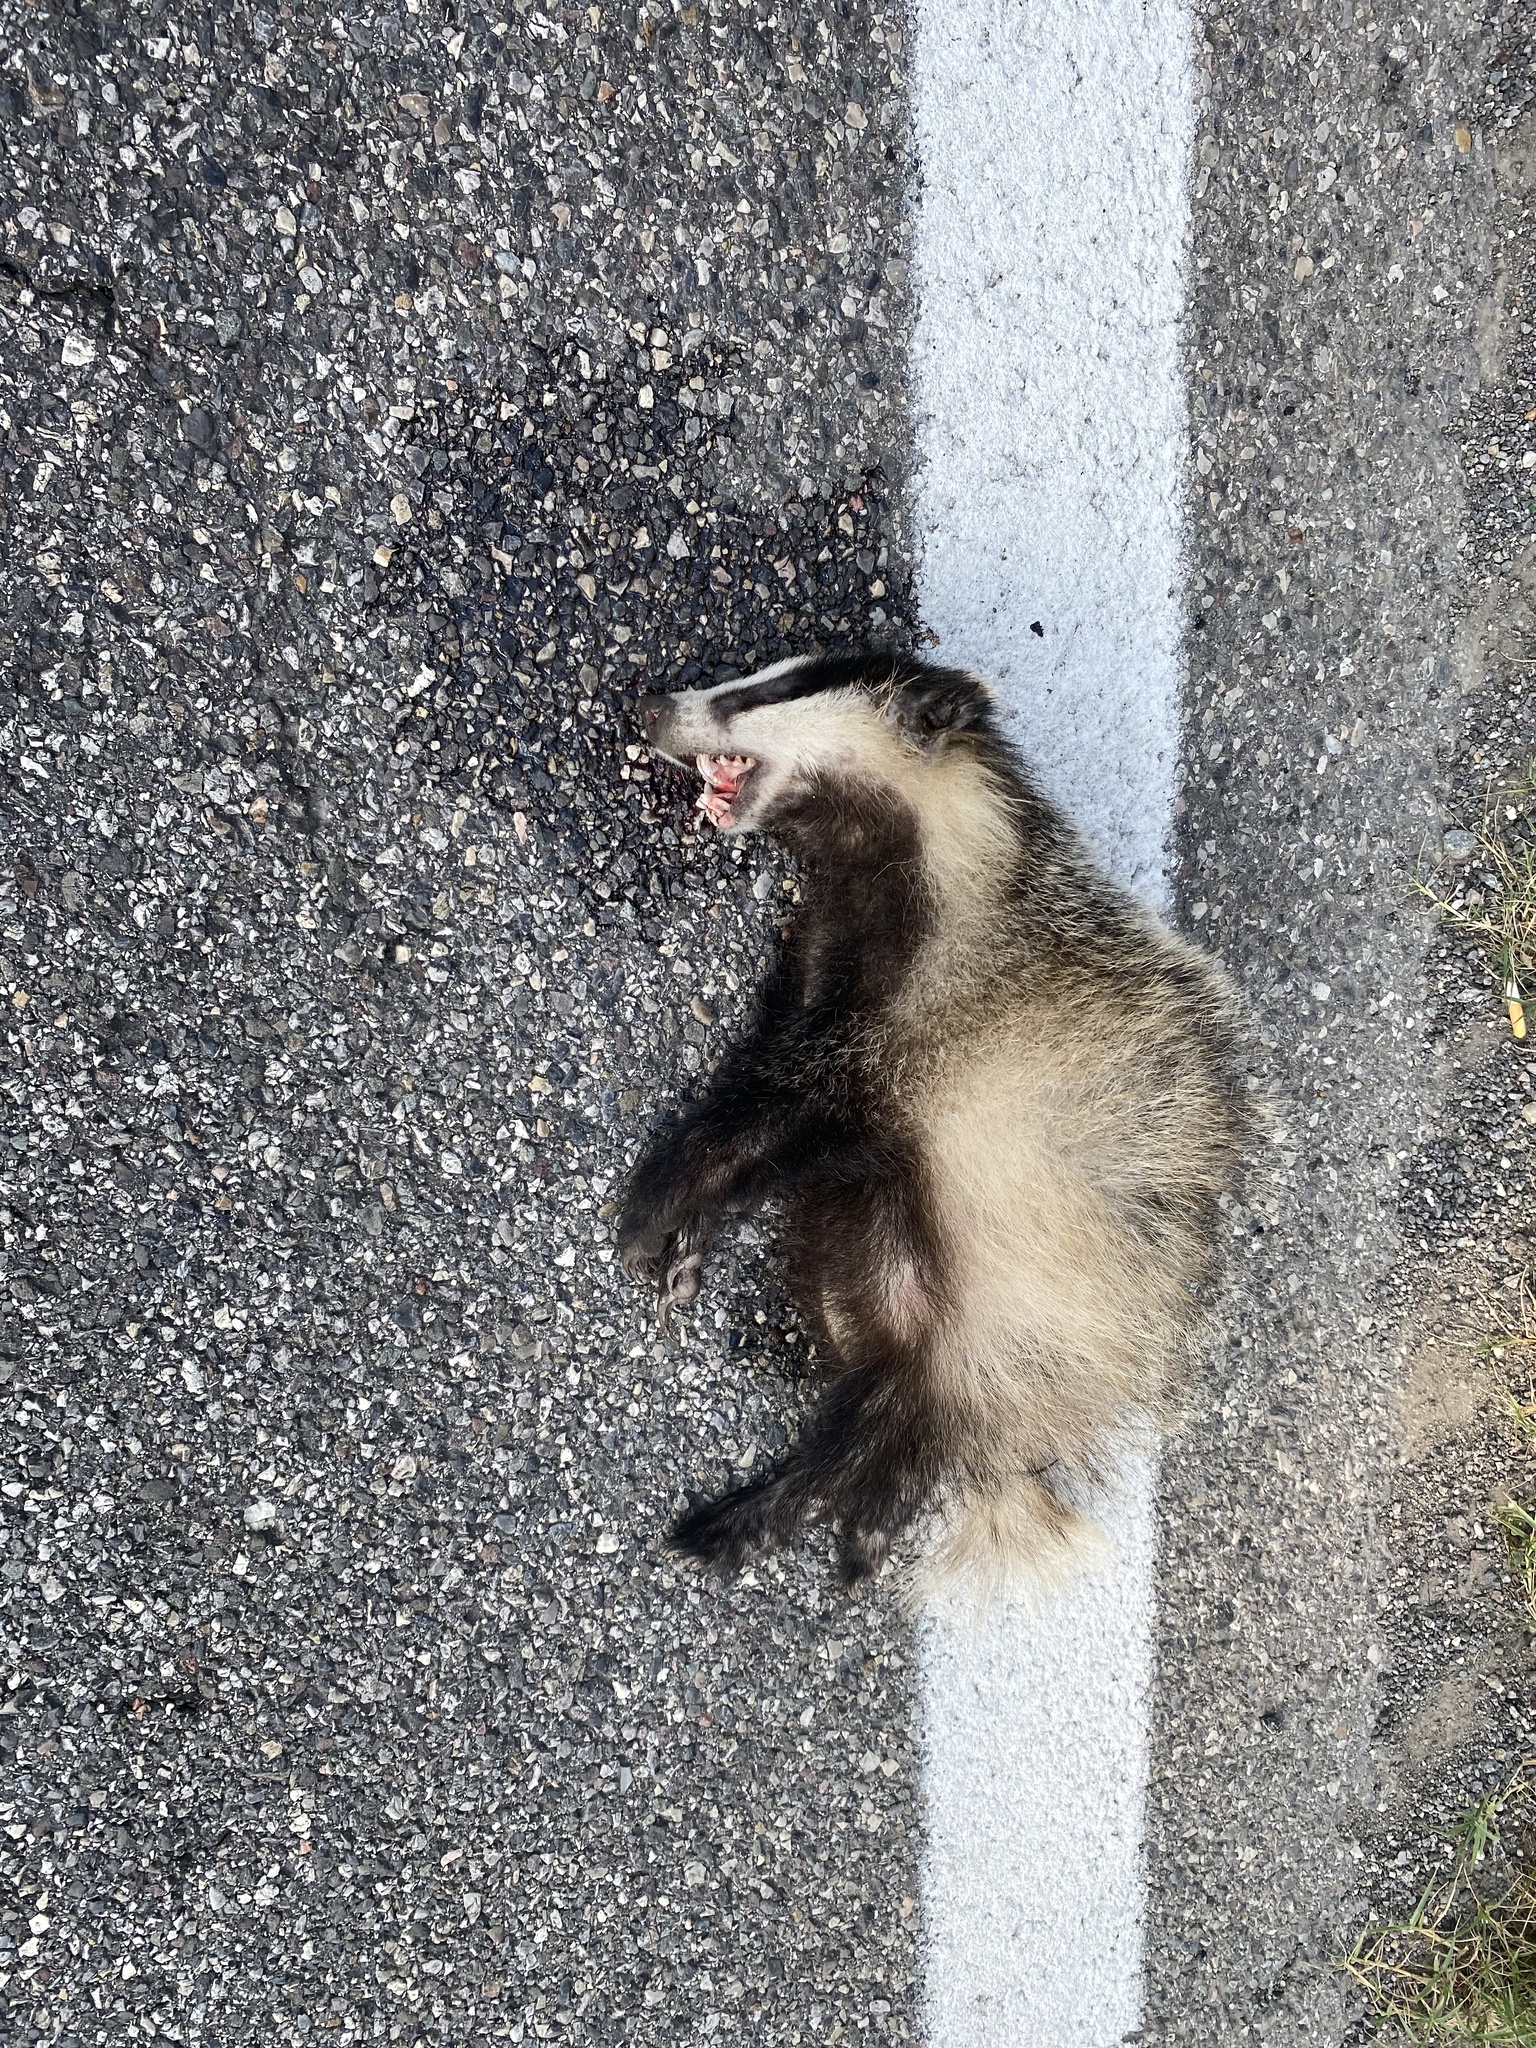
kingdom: Animalia
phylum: Chordata
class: Mammalia
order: Carnivora
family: Mustelidae
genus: Meles
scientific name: Meles meles
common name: Eurasian badger
